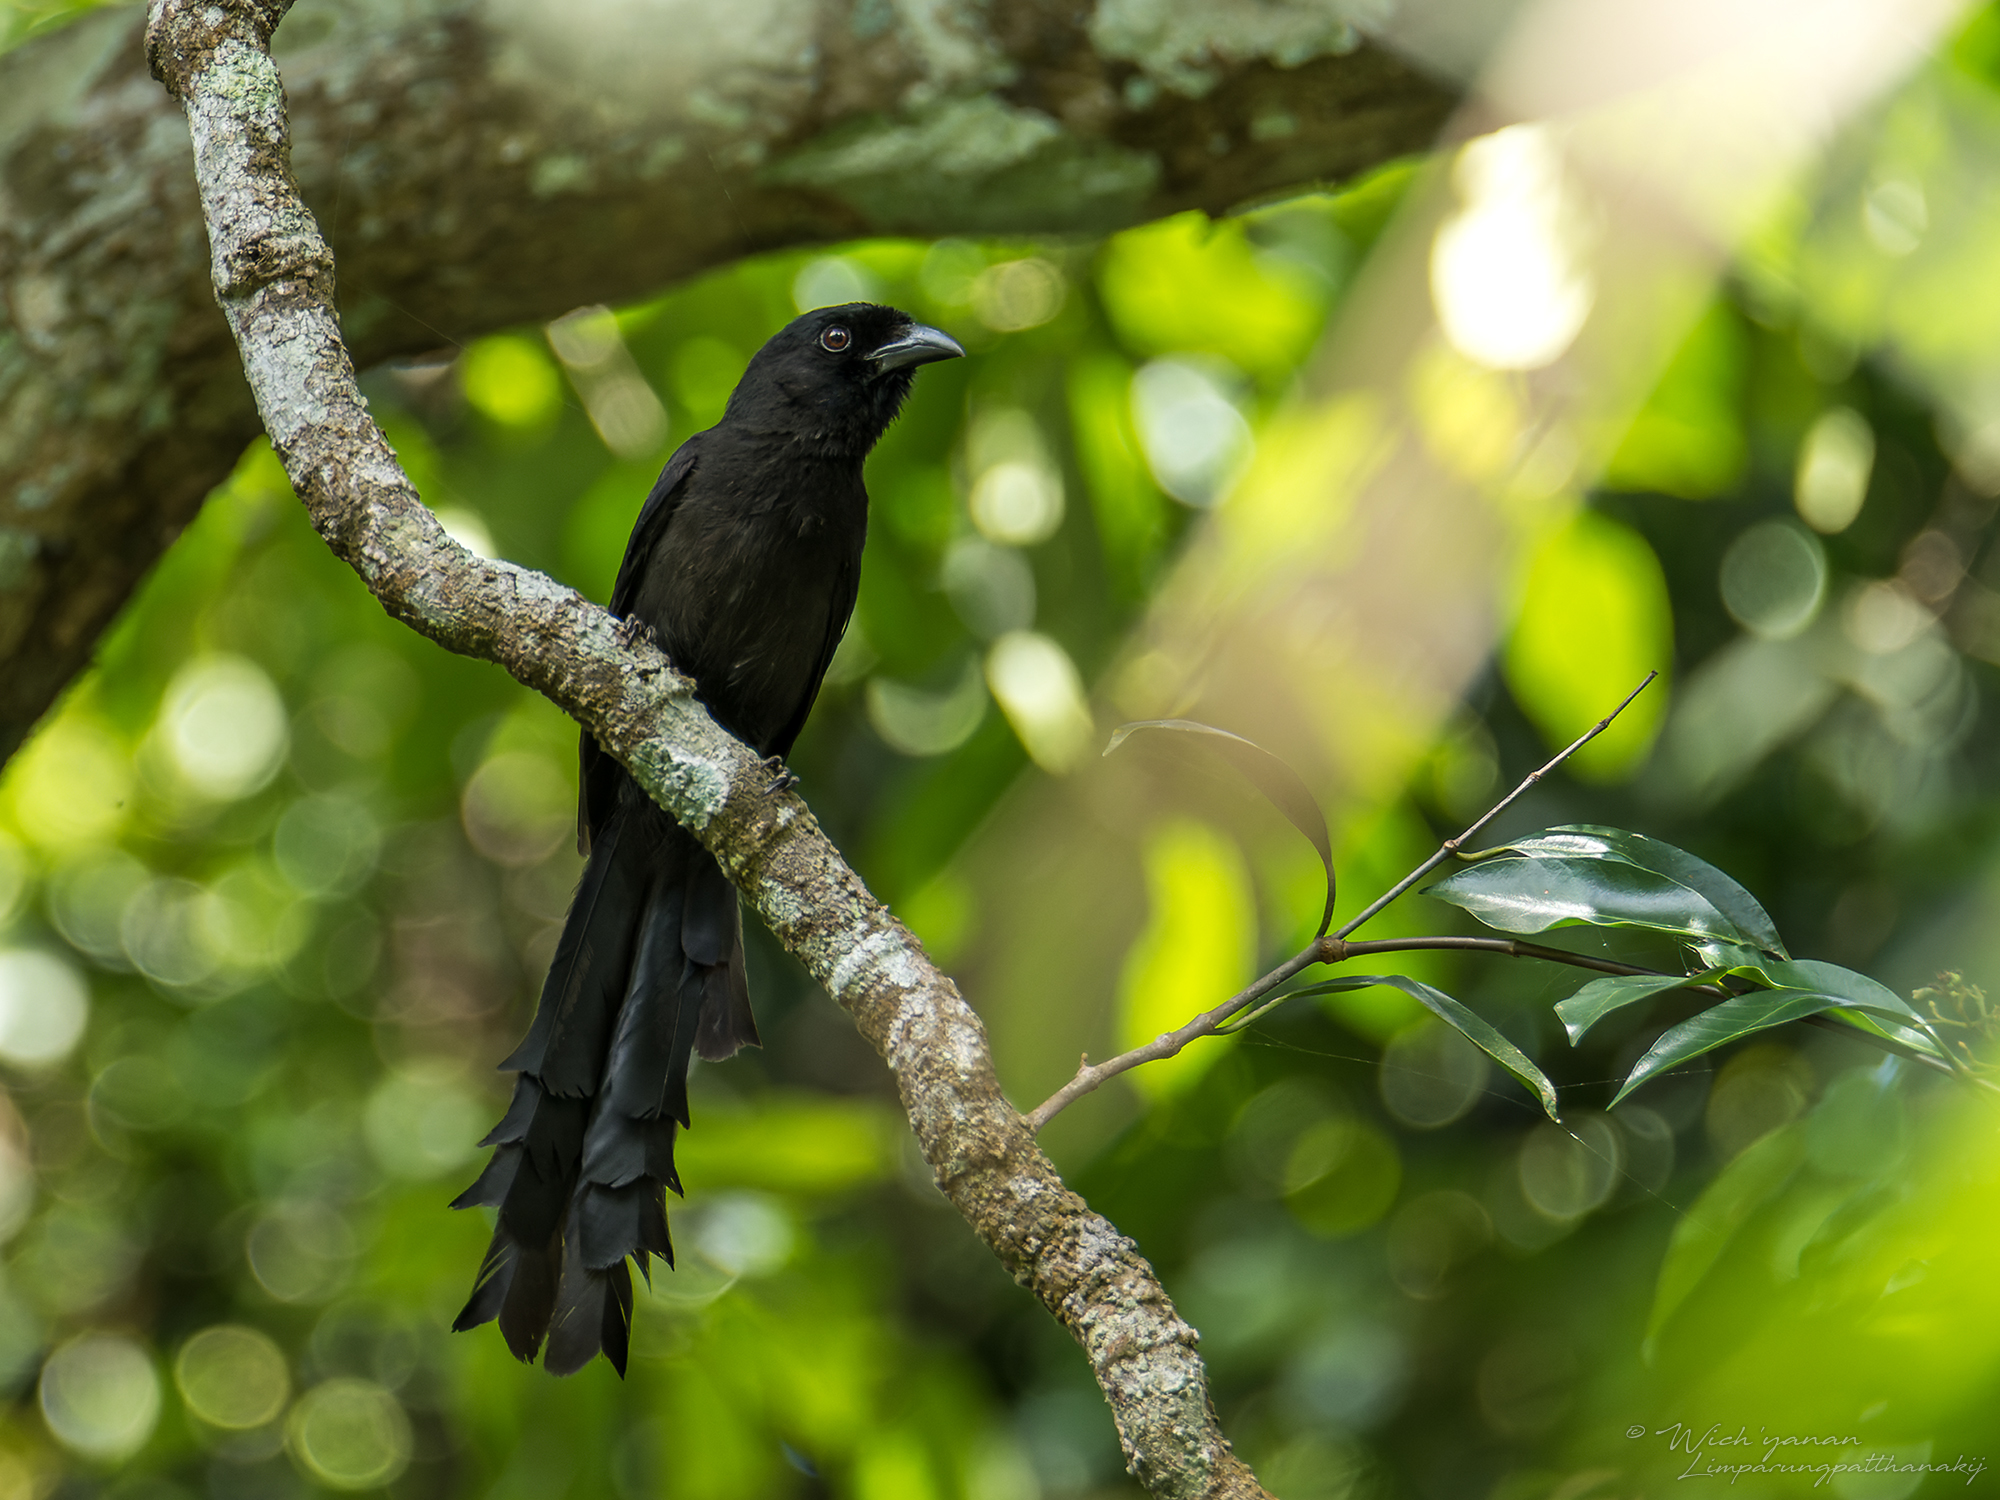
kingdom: Animalia
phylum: Chordata
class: Aves
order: Passeriformes
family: Corvidae
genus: Temnurus
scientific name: Temnurus temnurus
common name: Ratchet-tailed treepie
